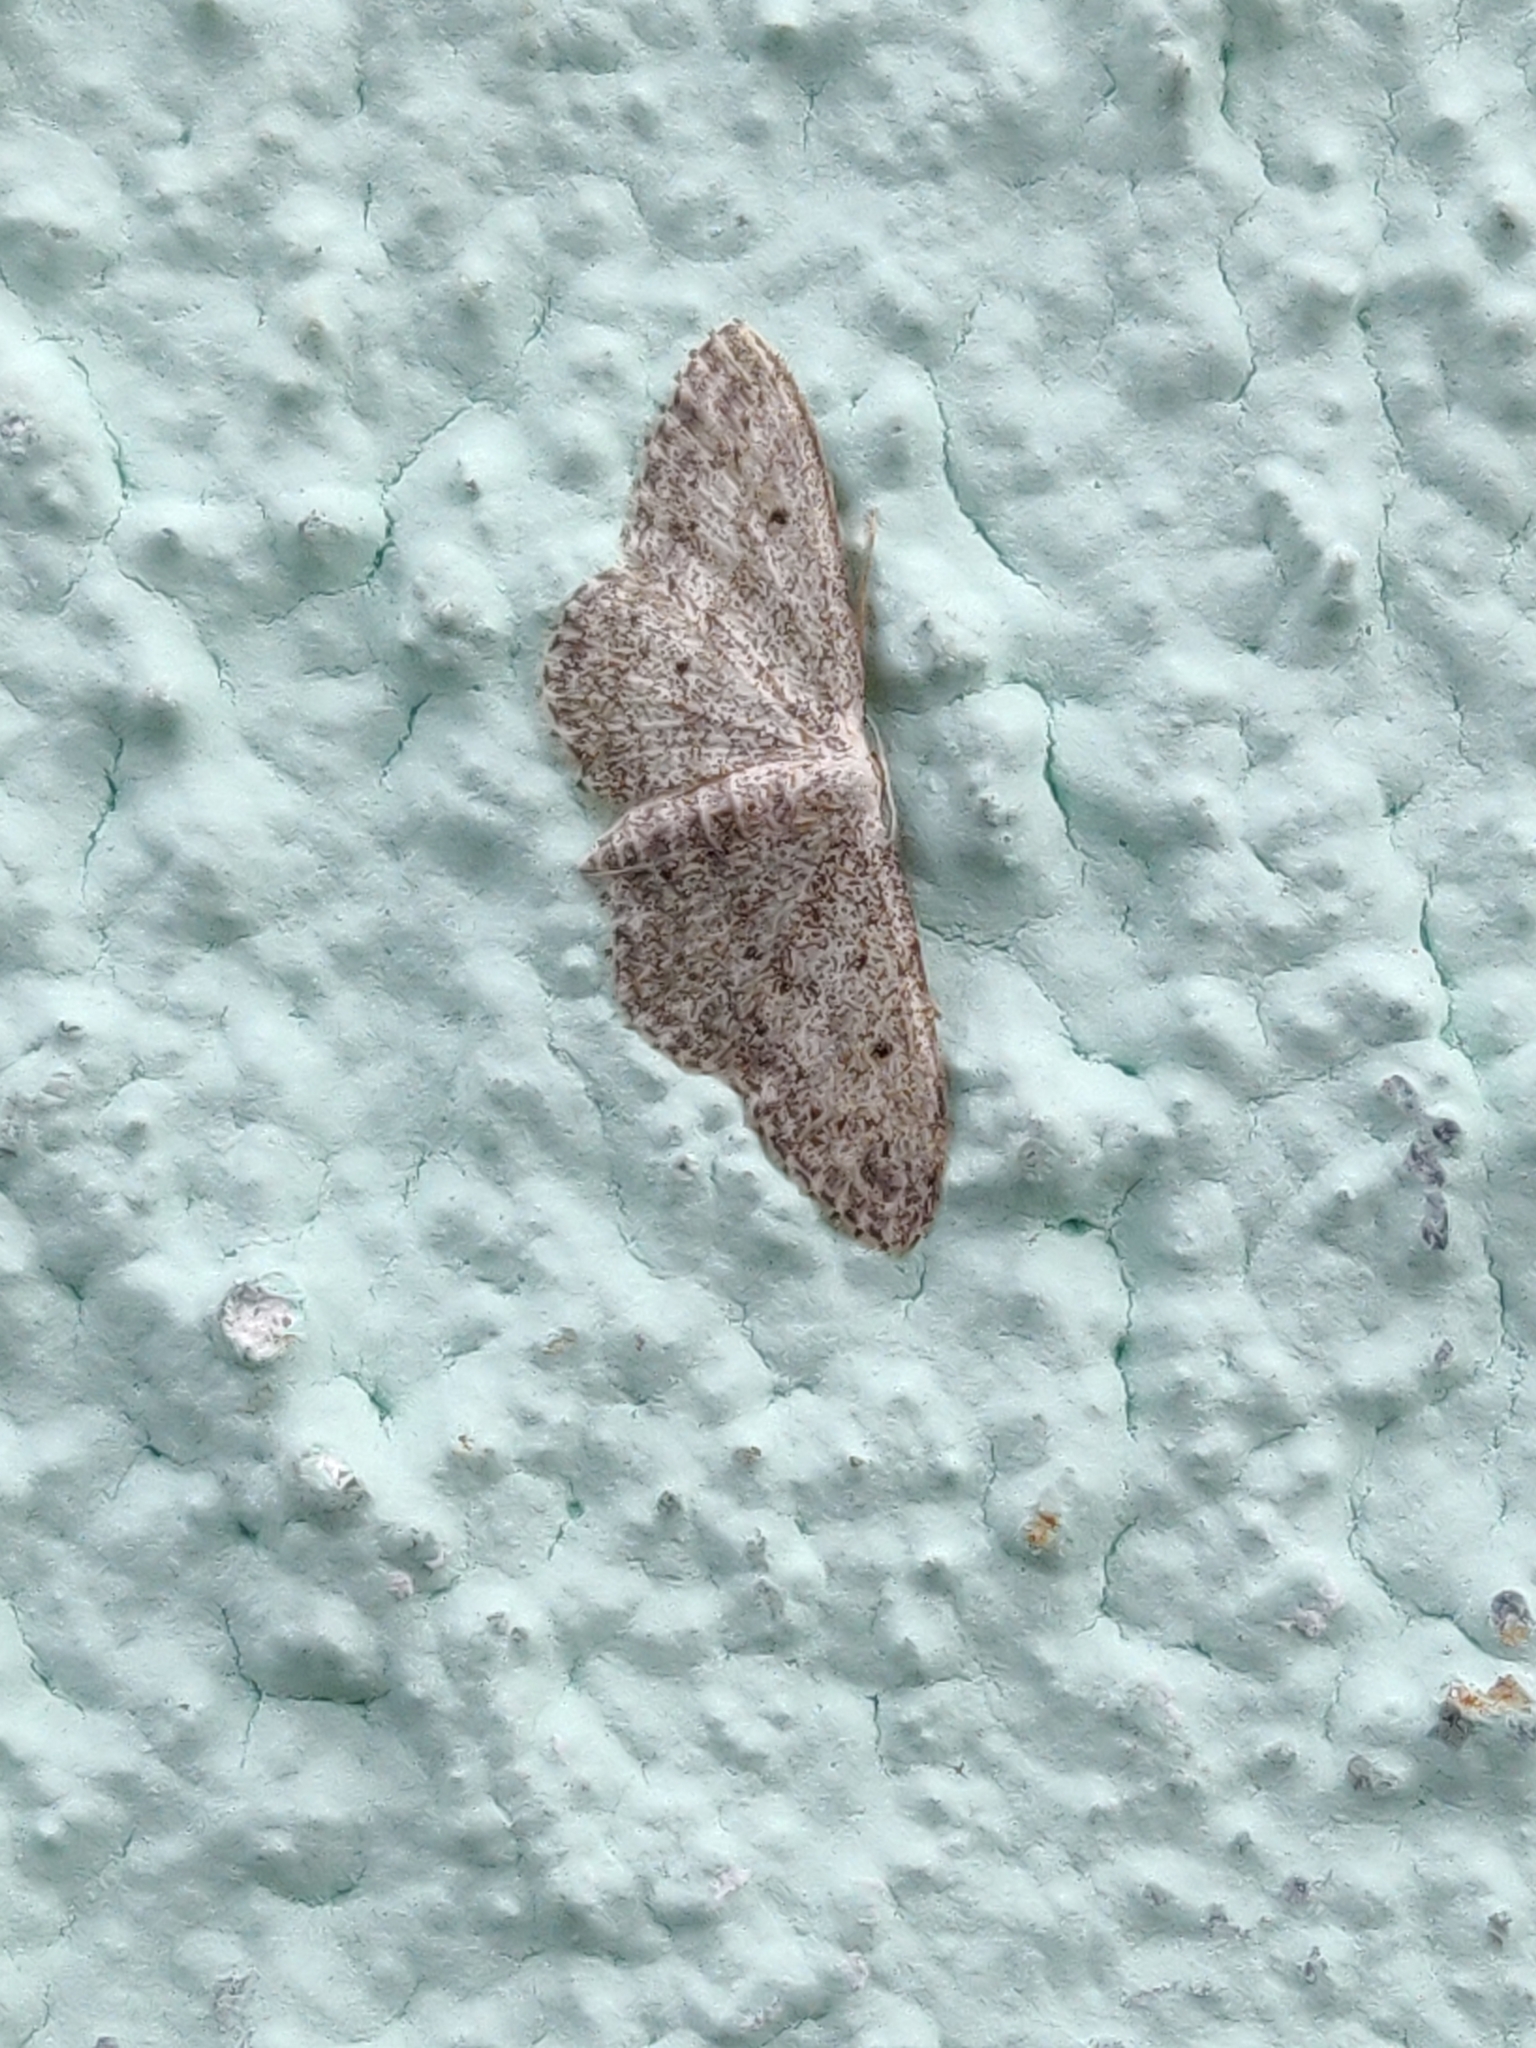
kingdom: Animalia
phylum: Arthropoda
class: Insecta
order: Lepidoptera
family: Geometridae
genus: Idaea
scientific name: Idaea seriata
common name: Small dusty wave
